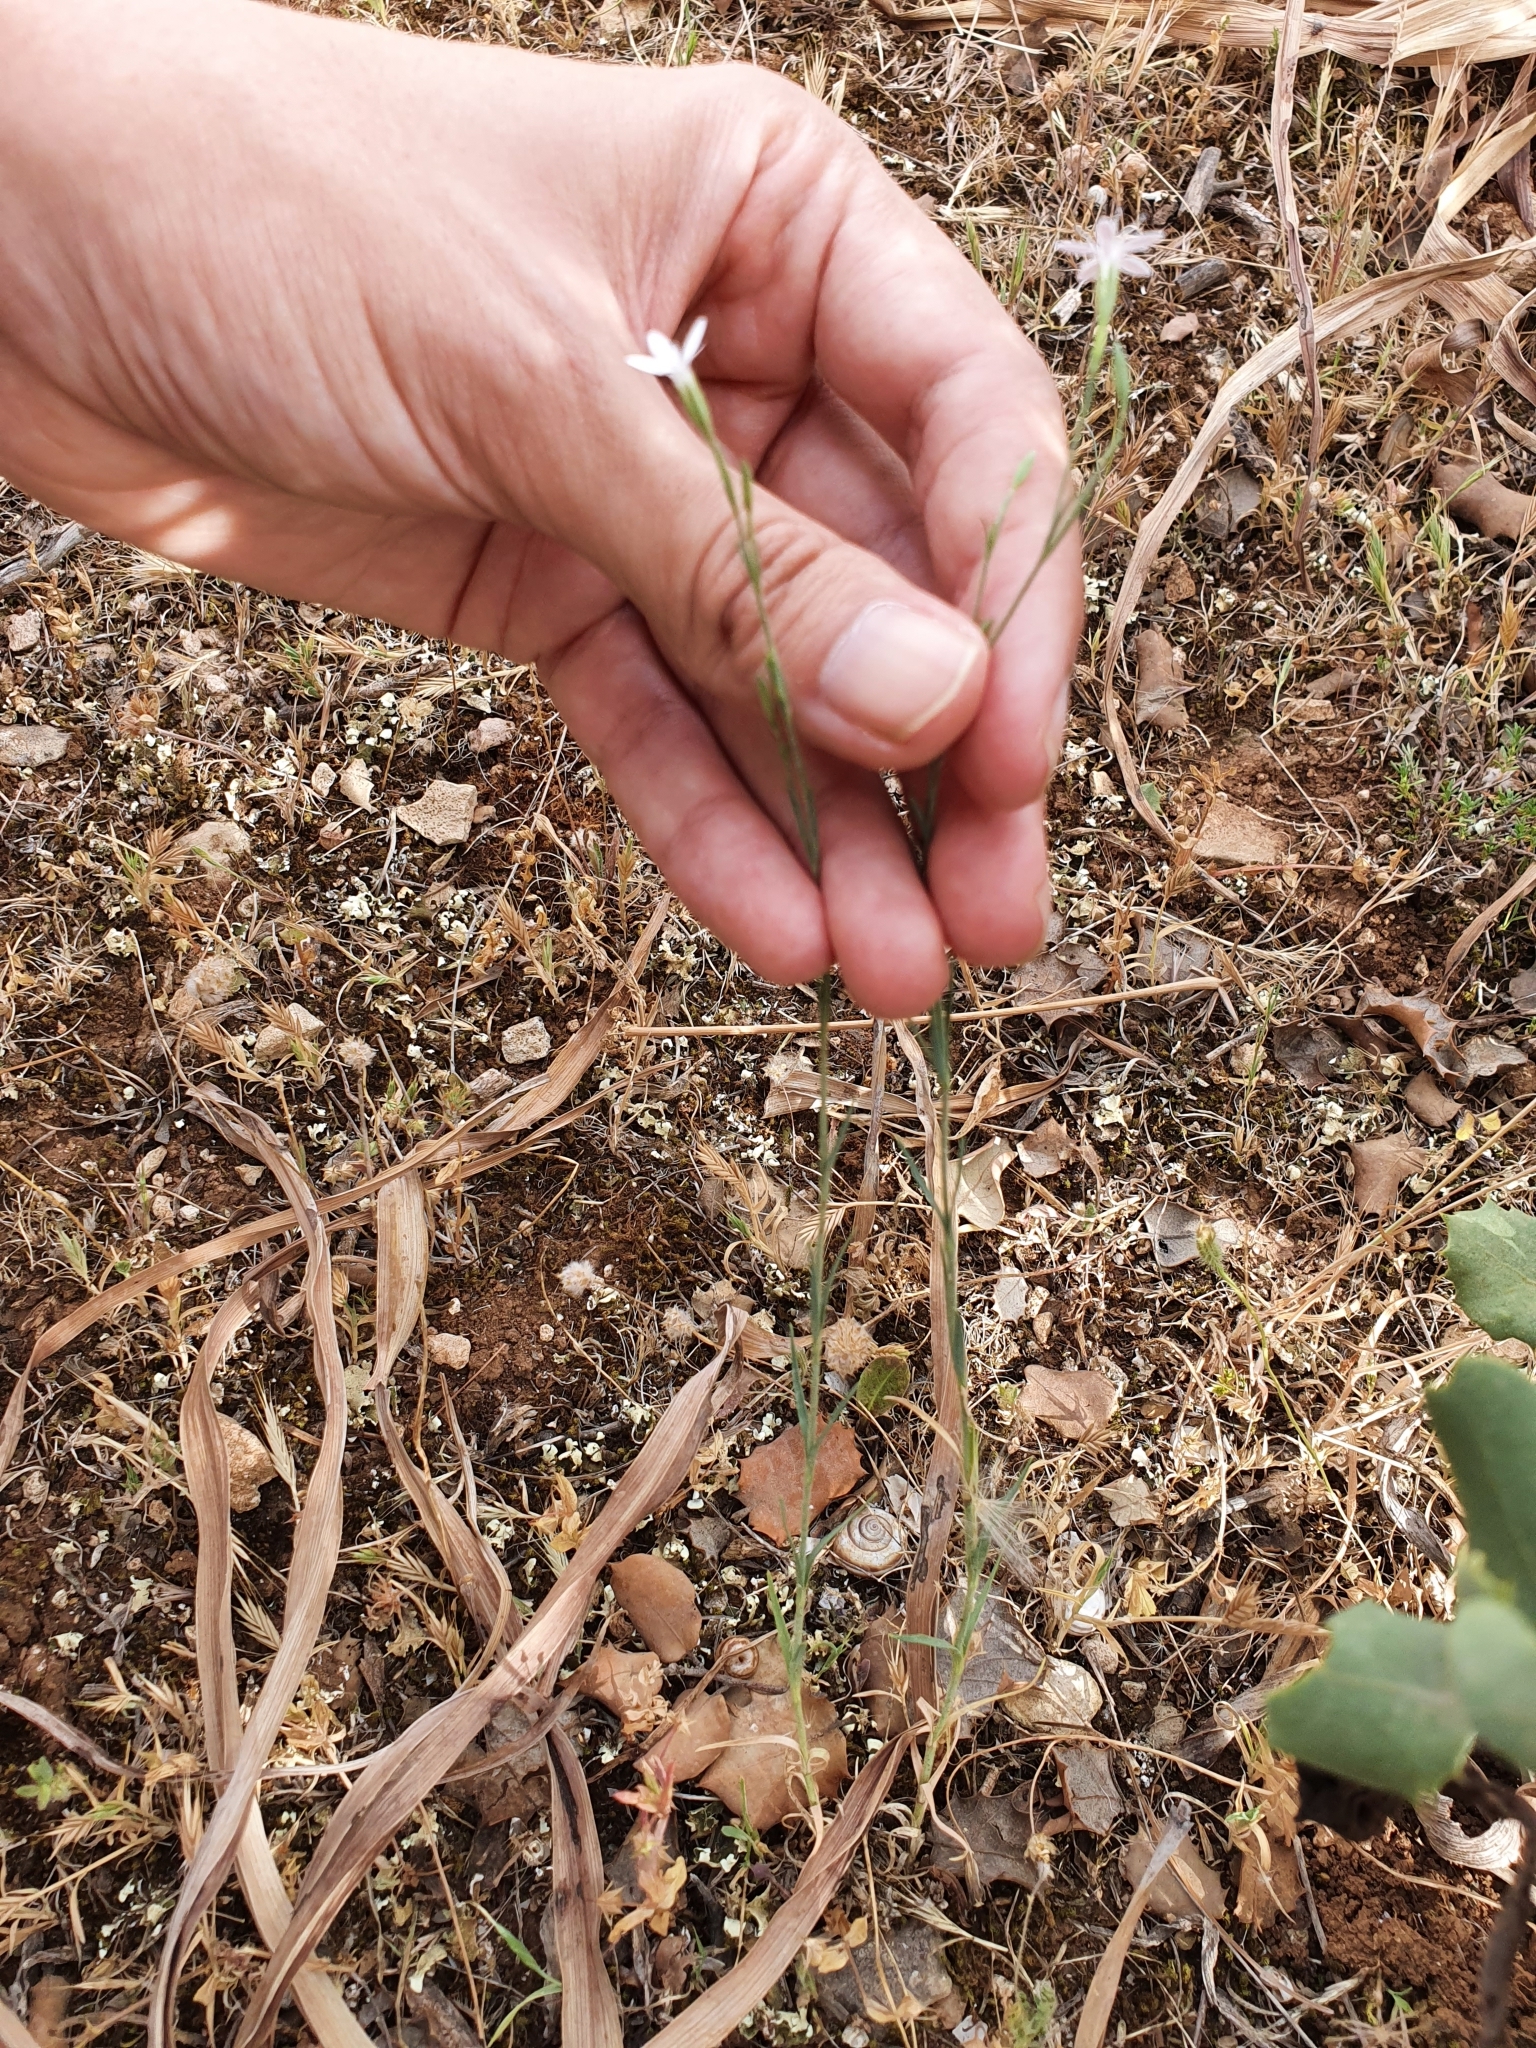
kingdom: Plantae
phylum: Tracheophyta
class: Magnoliopsida
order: Caryophyllales
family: Caryophyllaceae
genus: Dianthus
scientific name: Dianthus illyricus
